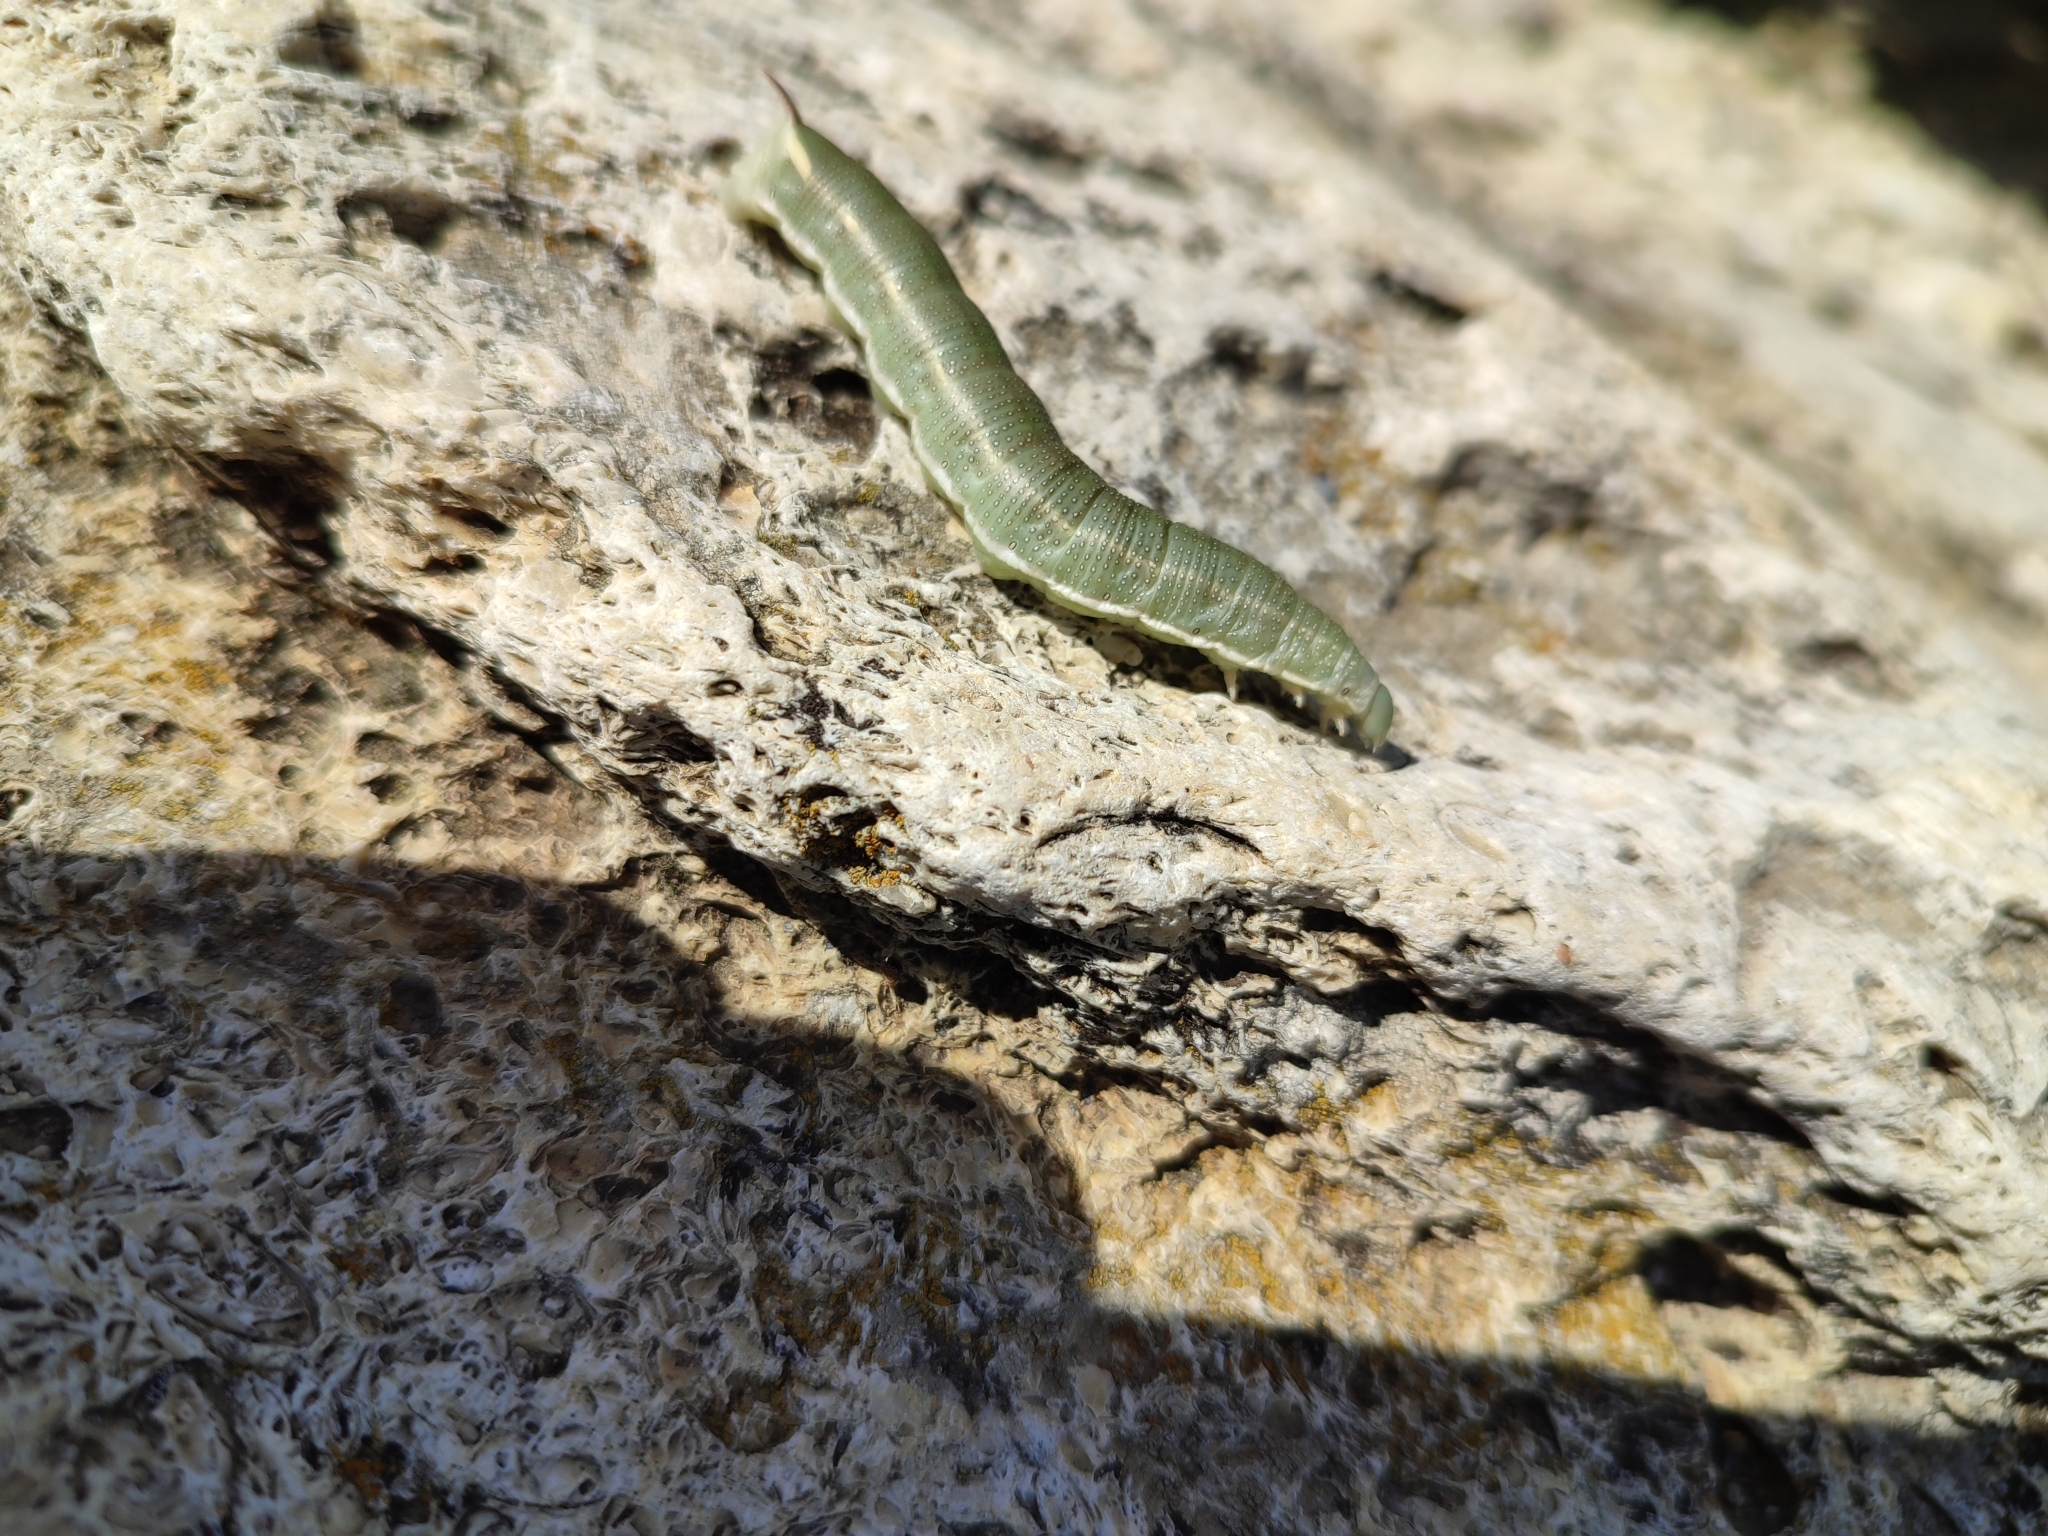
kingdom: Animalia
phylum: Arthropoda
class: Insecta
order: Lepidoptera
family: Sphingidae
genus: Hyles
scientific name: Hyles hippophaes
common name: Seathorn hawk-moth
